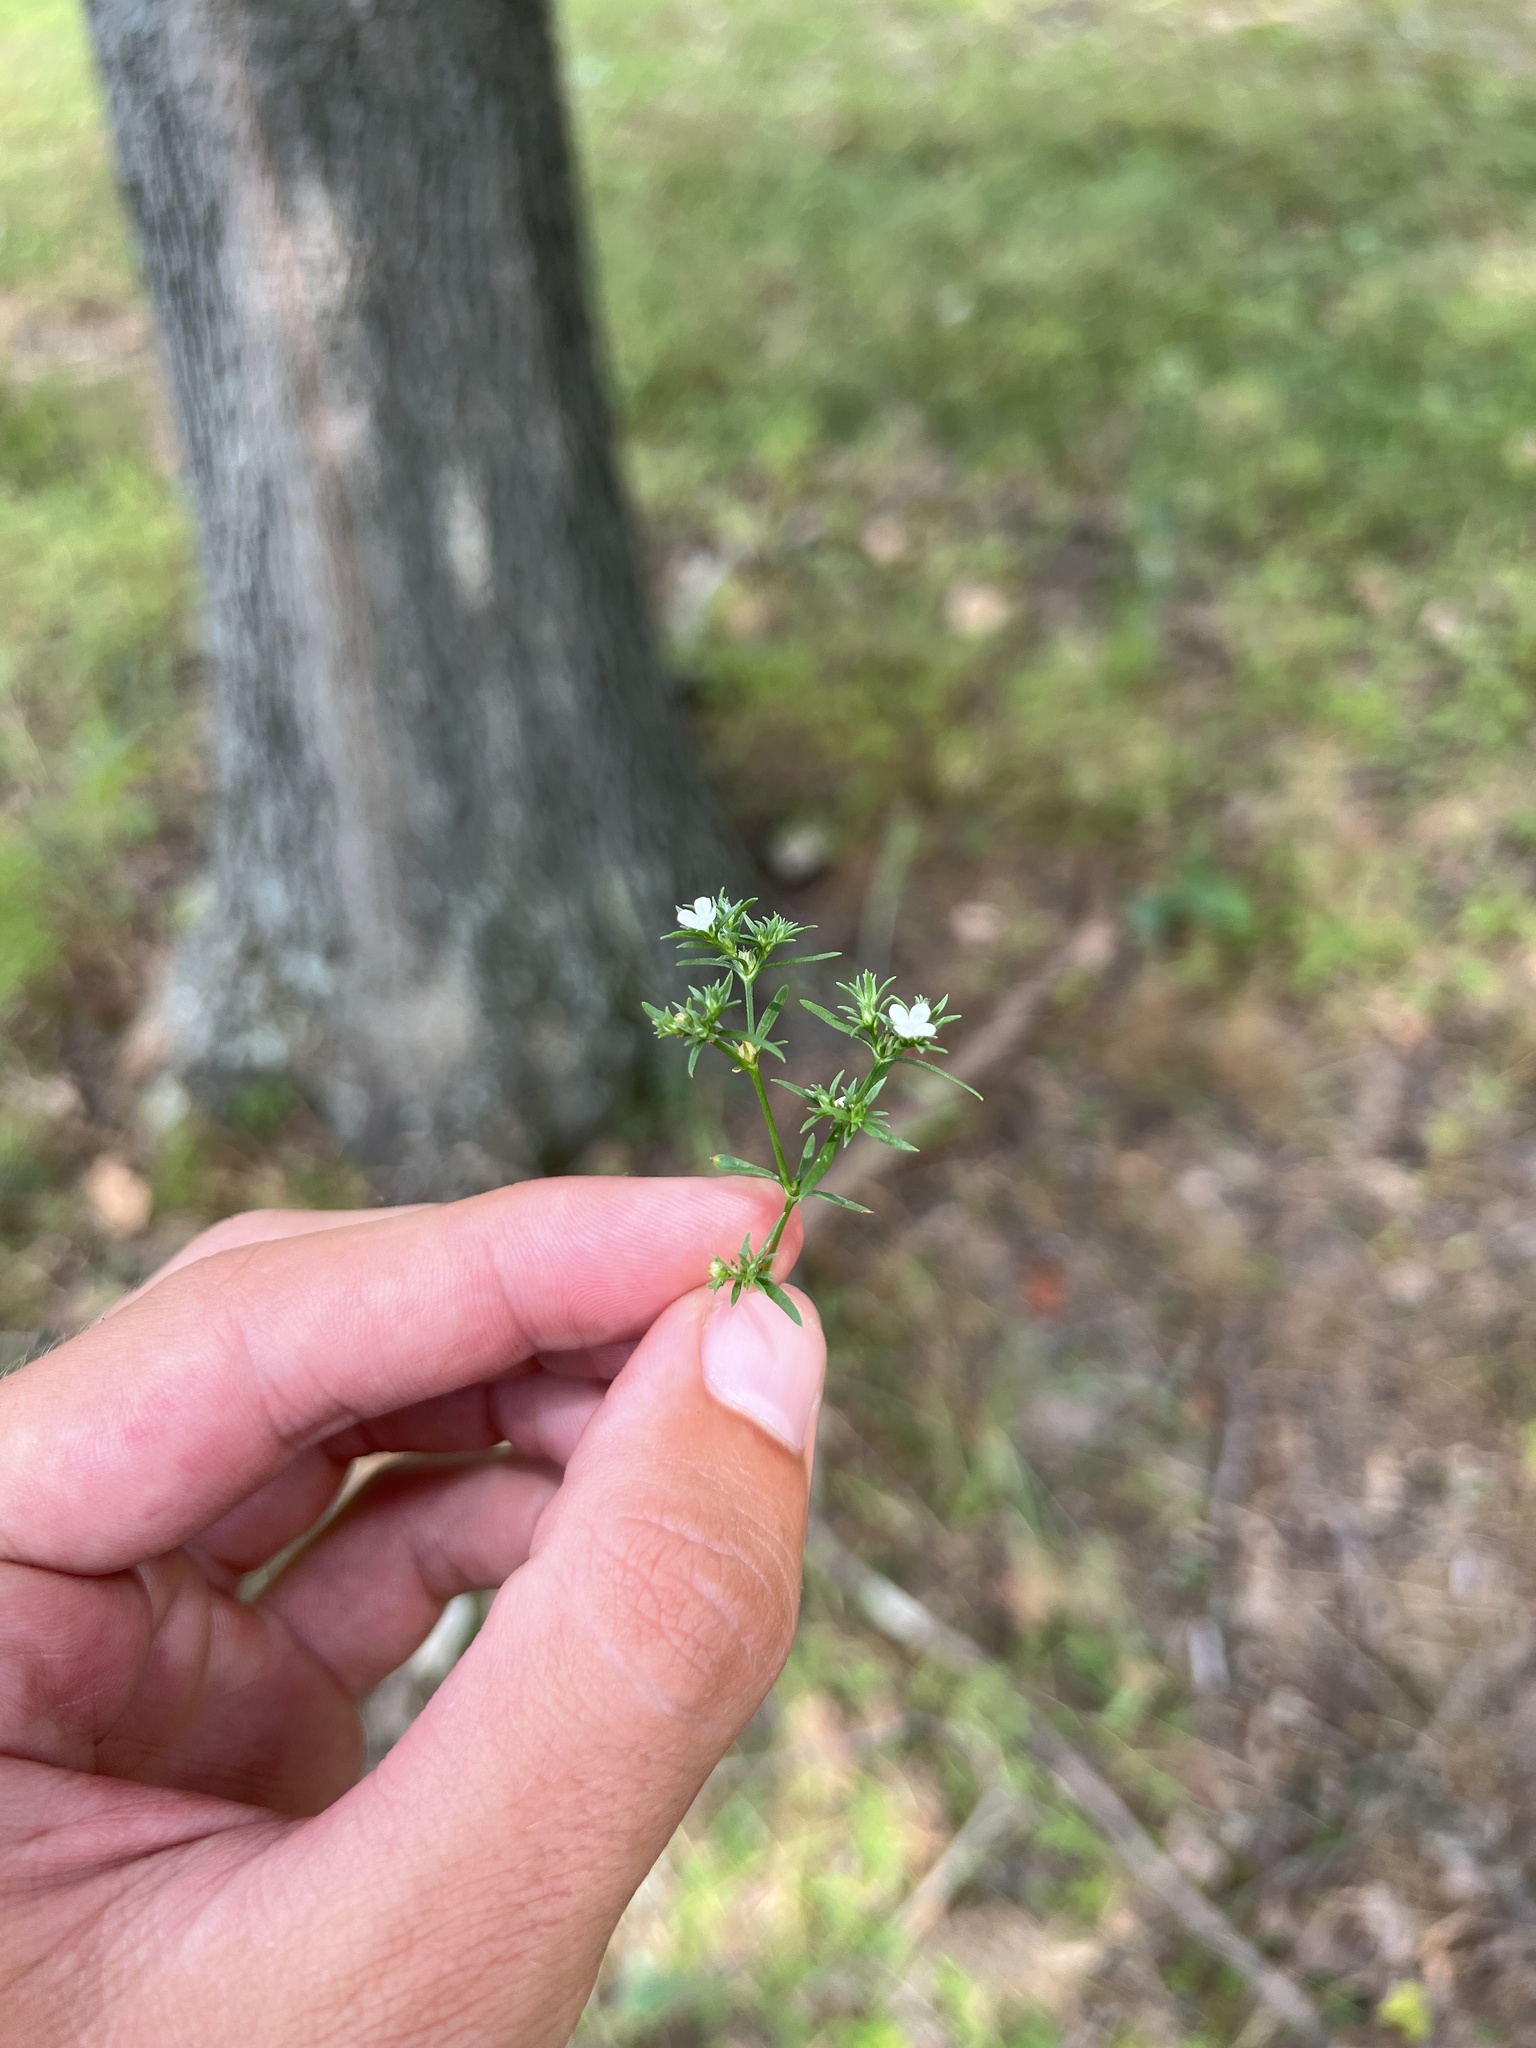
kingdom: Plantae
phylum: Tracheophyta
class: Magnoliopsida
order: Lamiales
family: Tetrachondraceae
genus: Polypremum
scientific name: Polypremum procumbens
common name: Juniper-leaf
